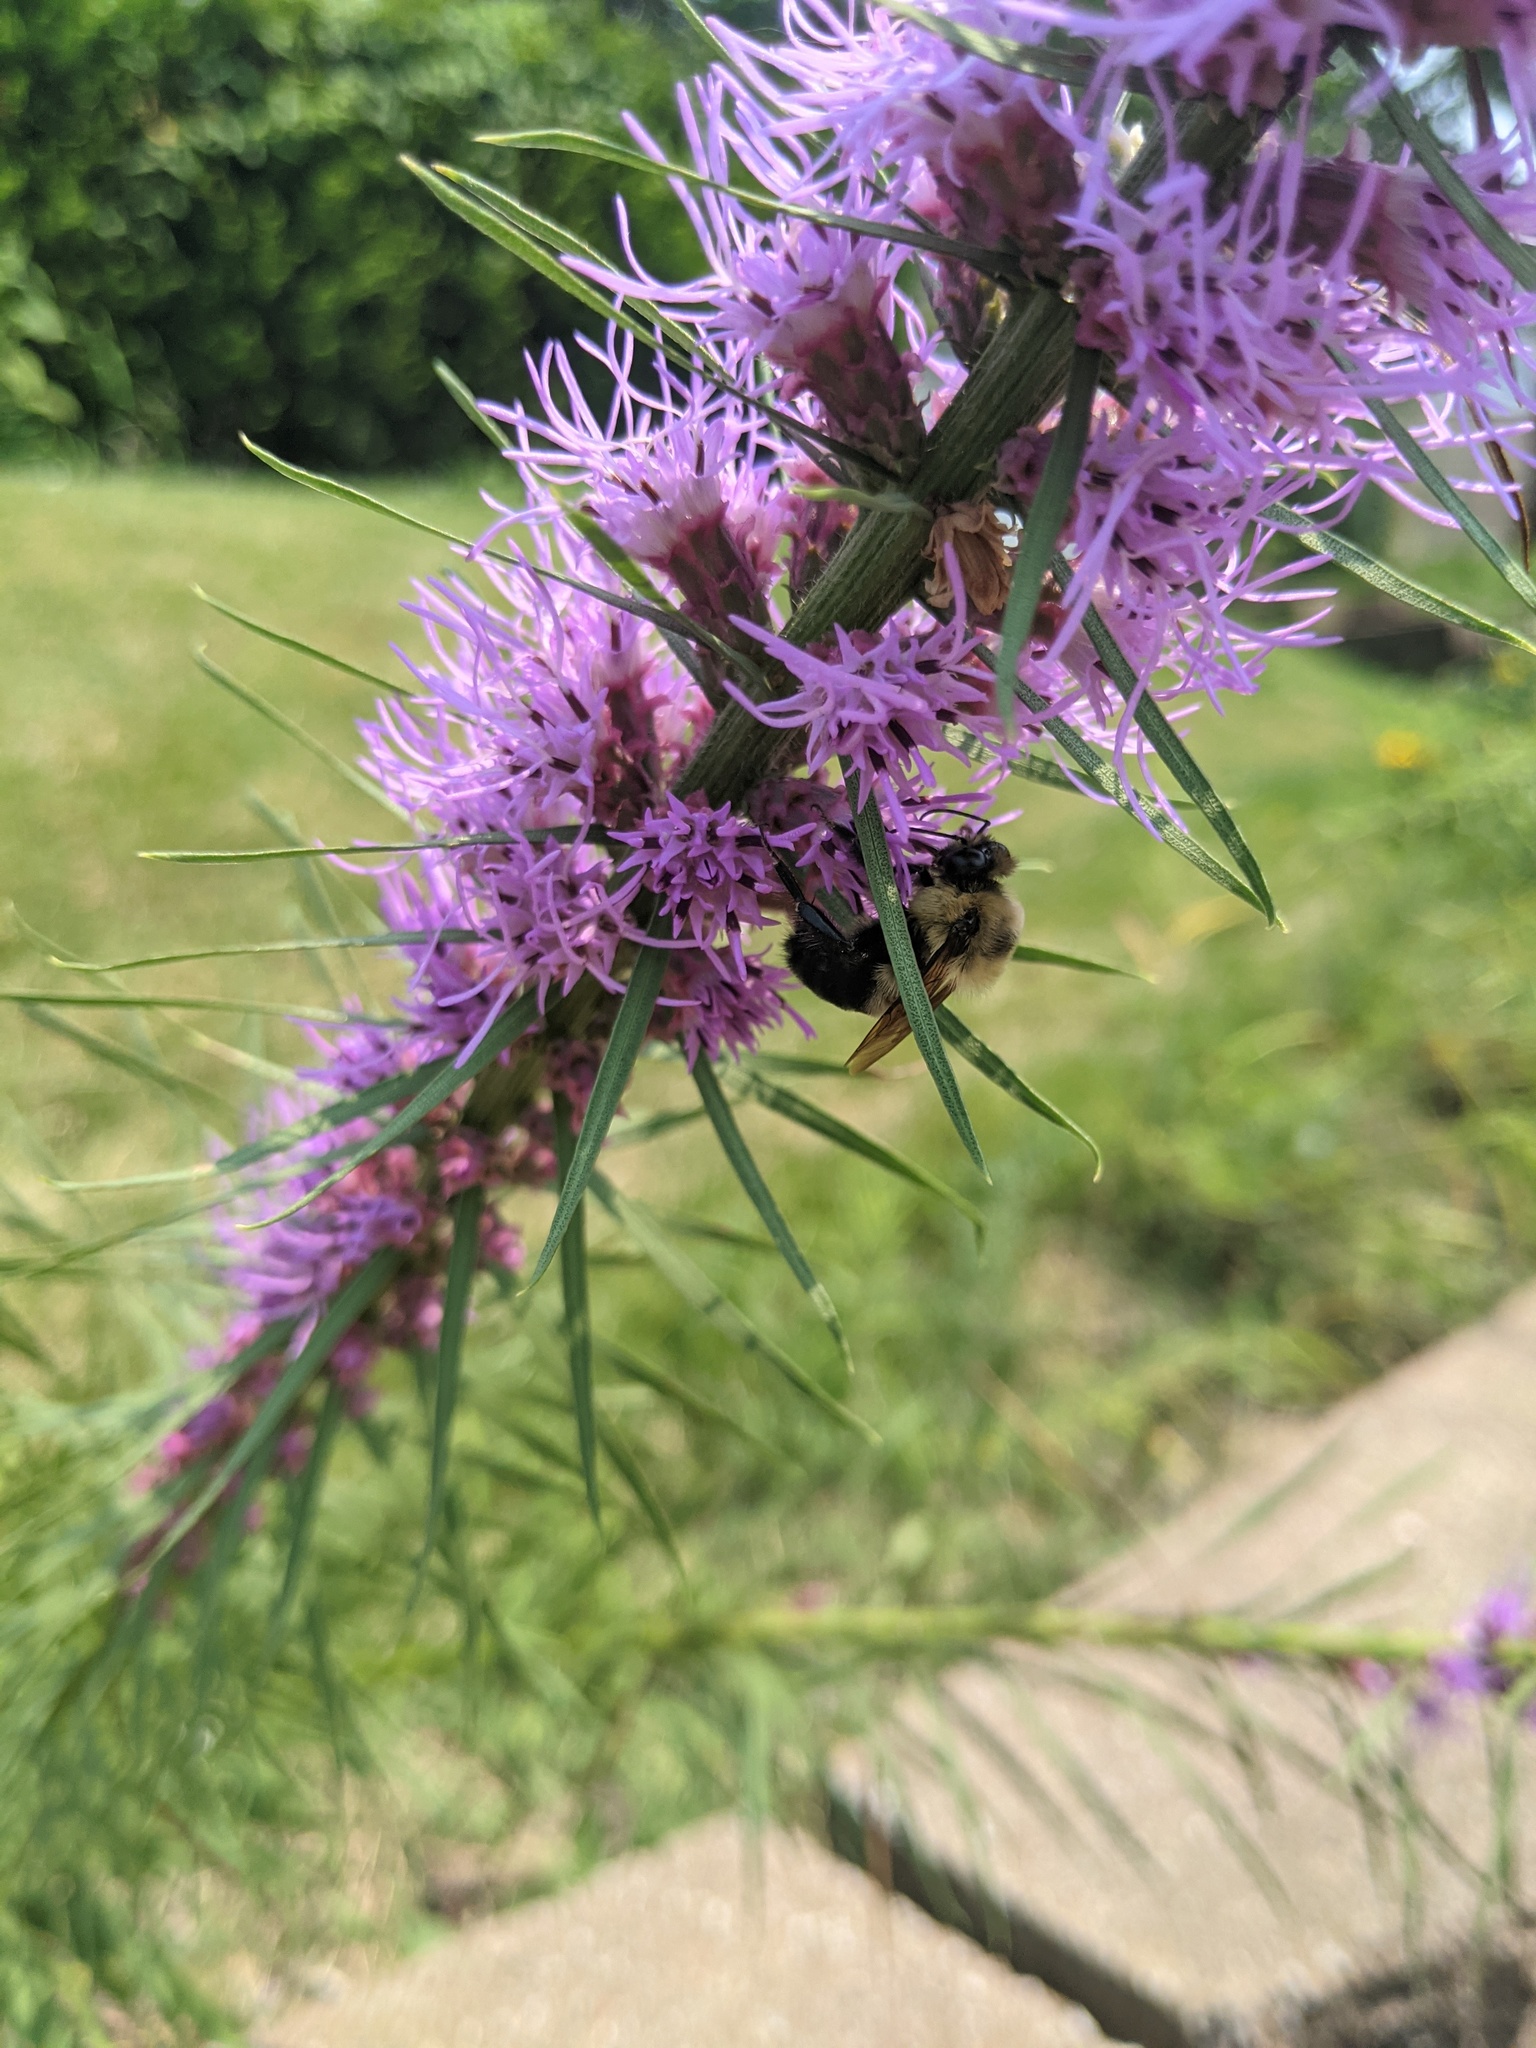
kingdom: Animalia
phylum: Arthropoda
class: Insecta
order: Hymenoptera
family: Apidae
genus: Bombus
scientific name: Bombus griseocollis
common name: Brown-belted bumble bee
